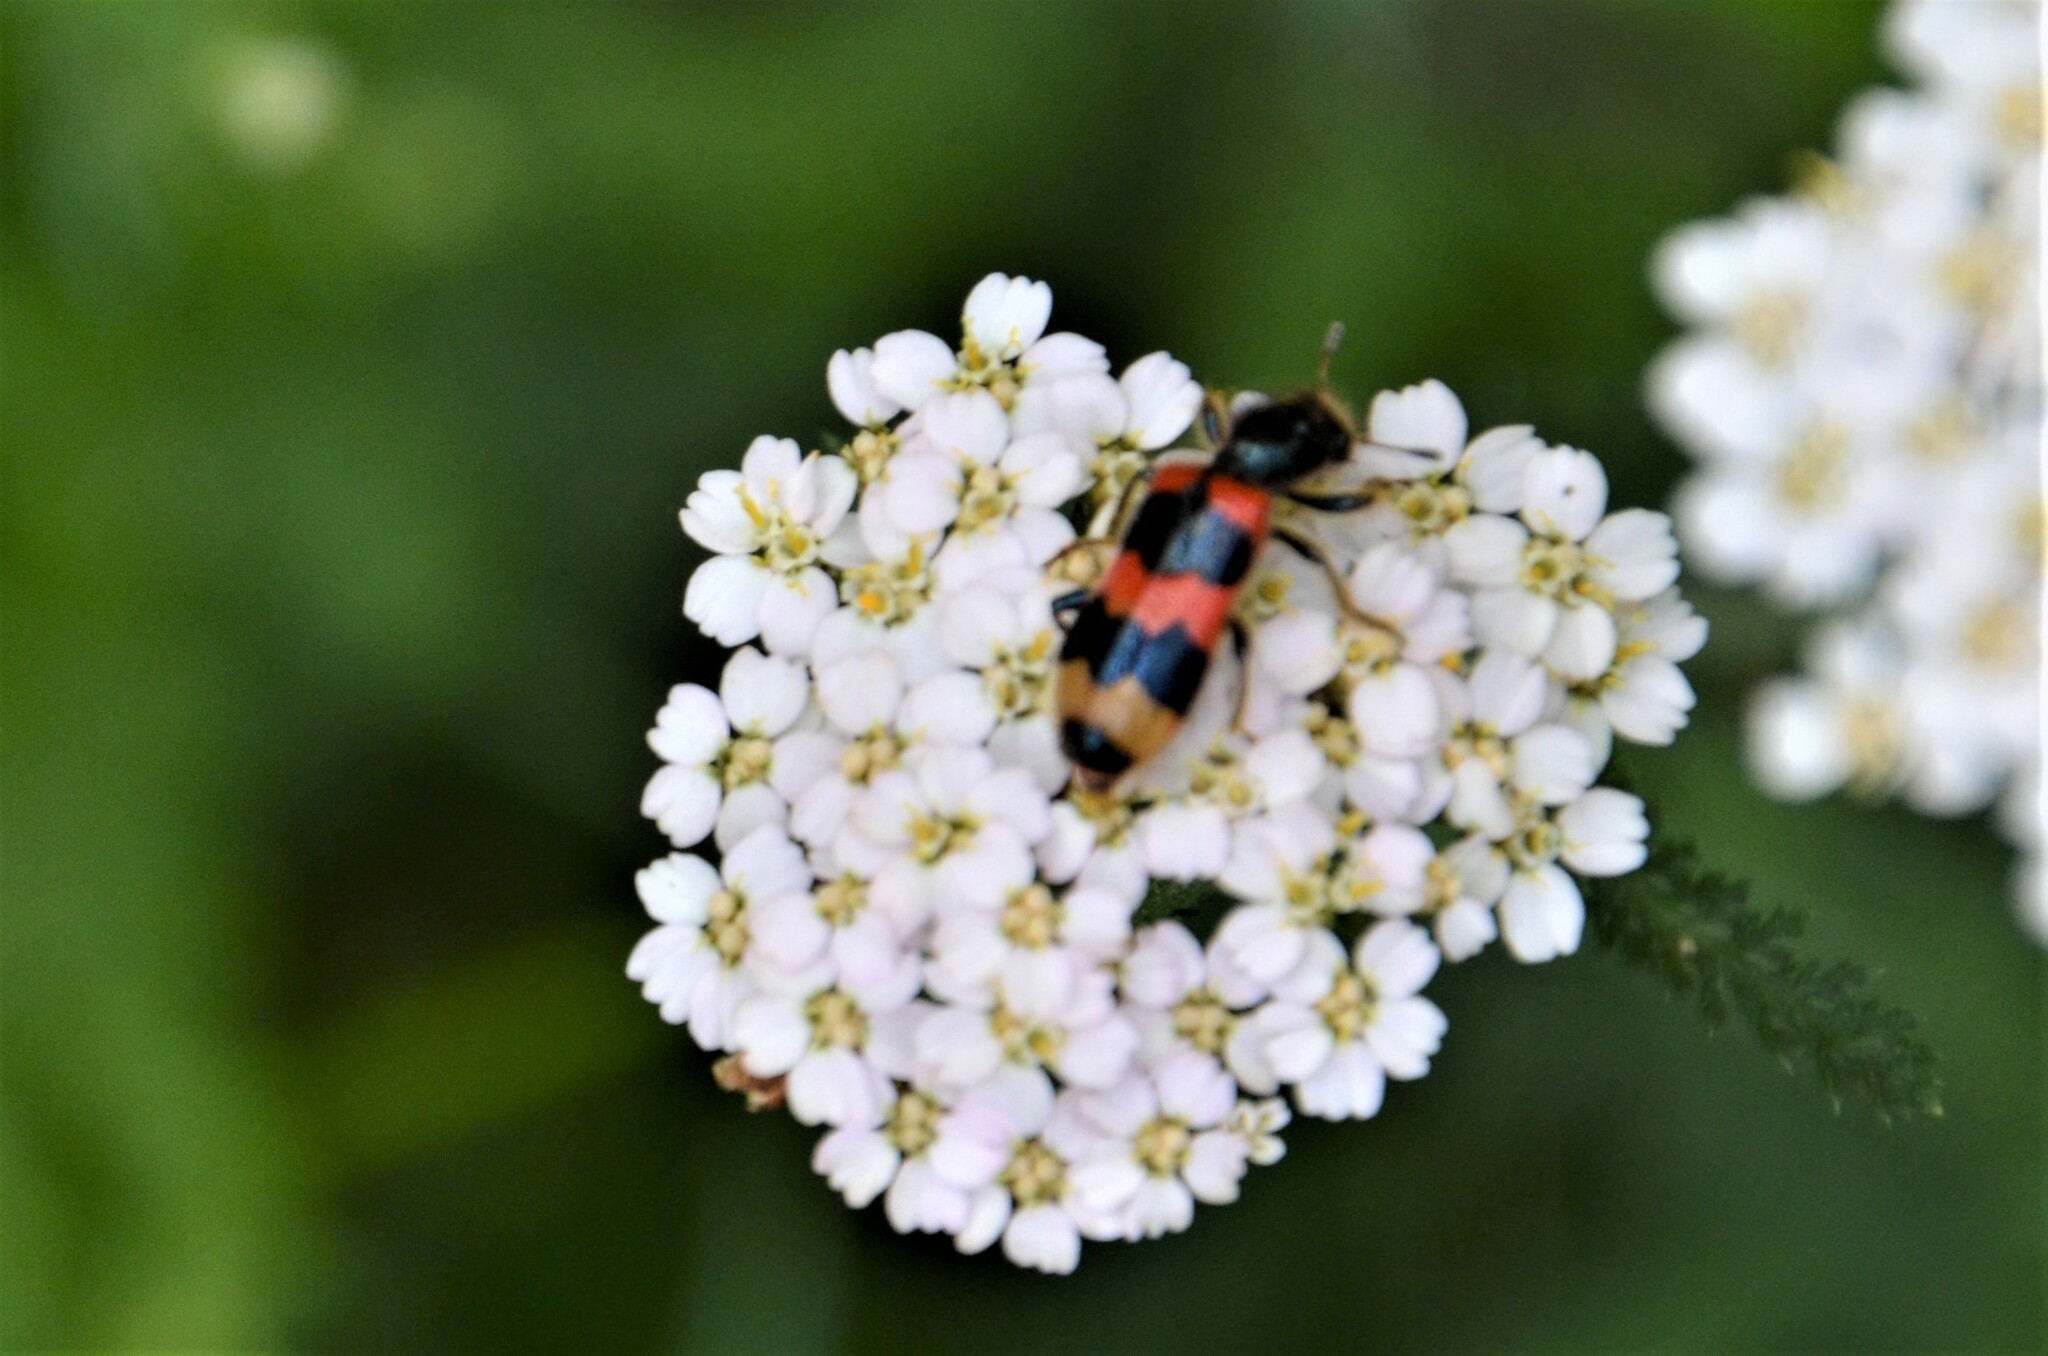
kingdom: Animalia
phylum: Arthropoda
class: Insecta
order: Coleoptera
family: Cleridae
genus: Trichodes
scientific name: Trichodes apiarius
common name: Bee-eating beetle
